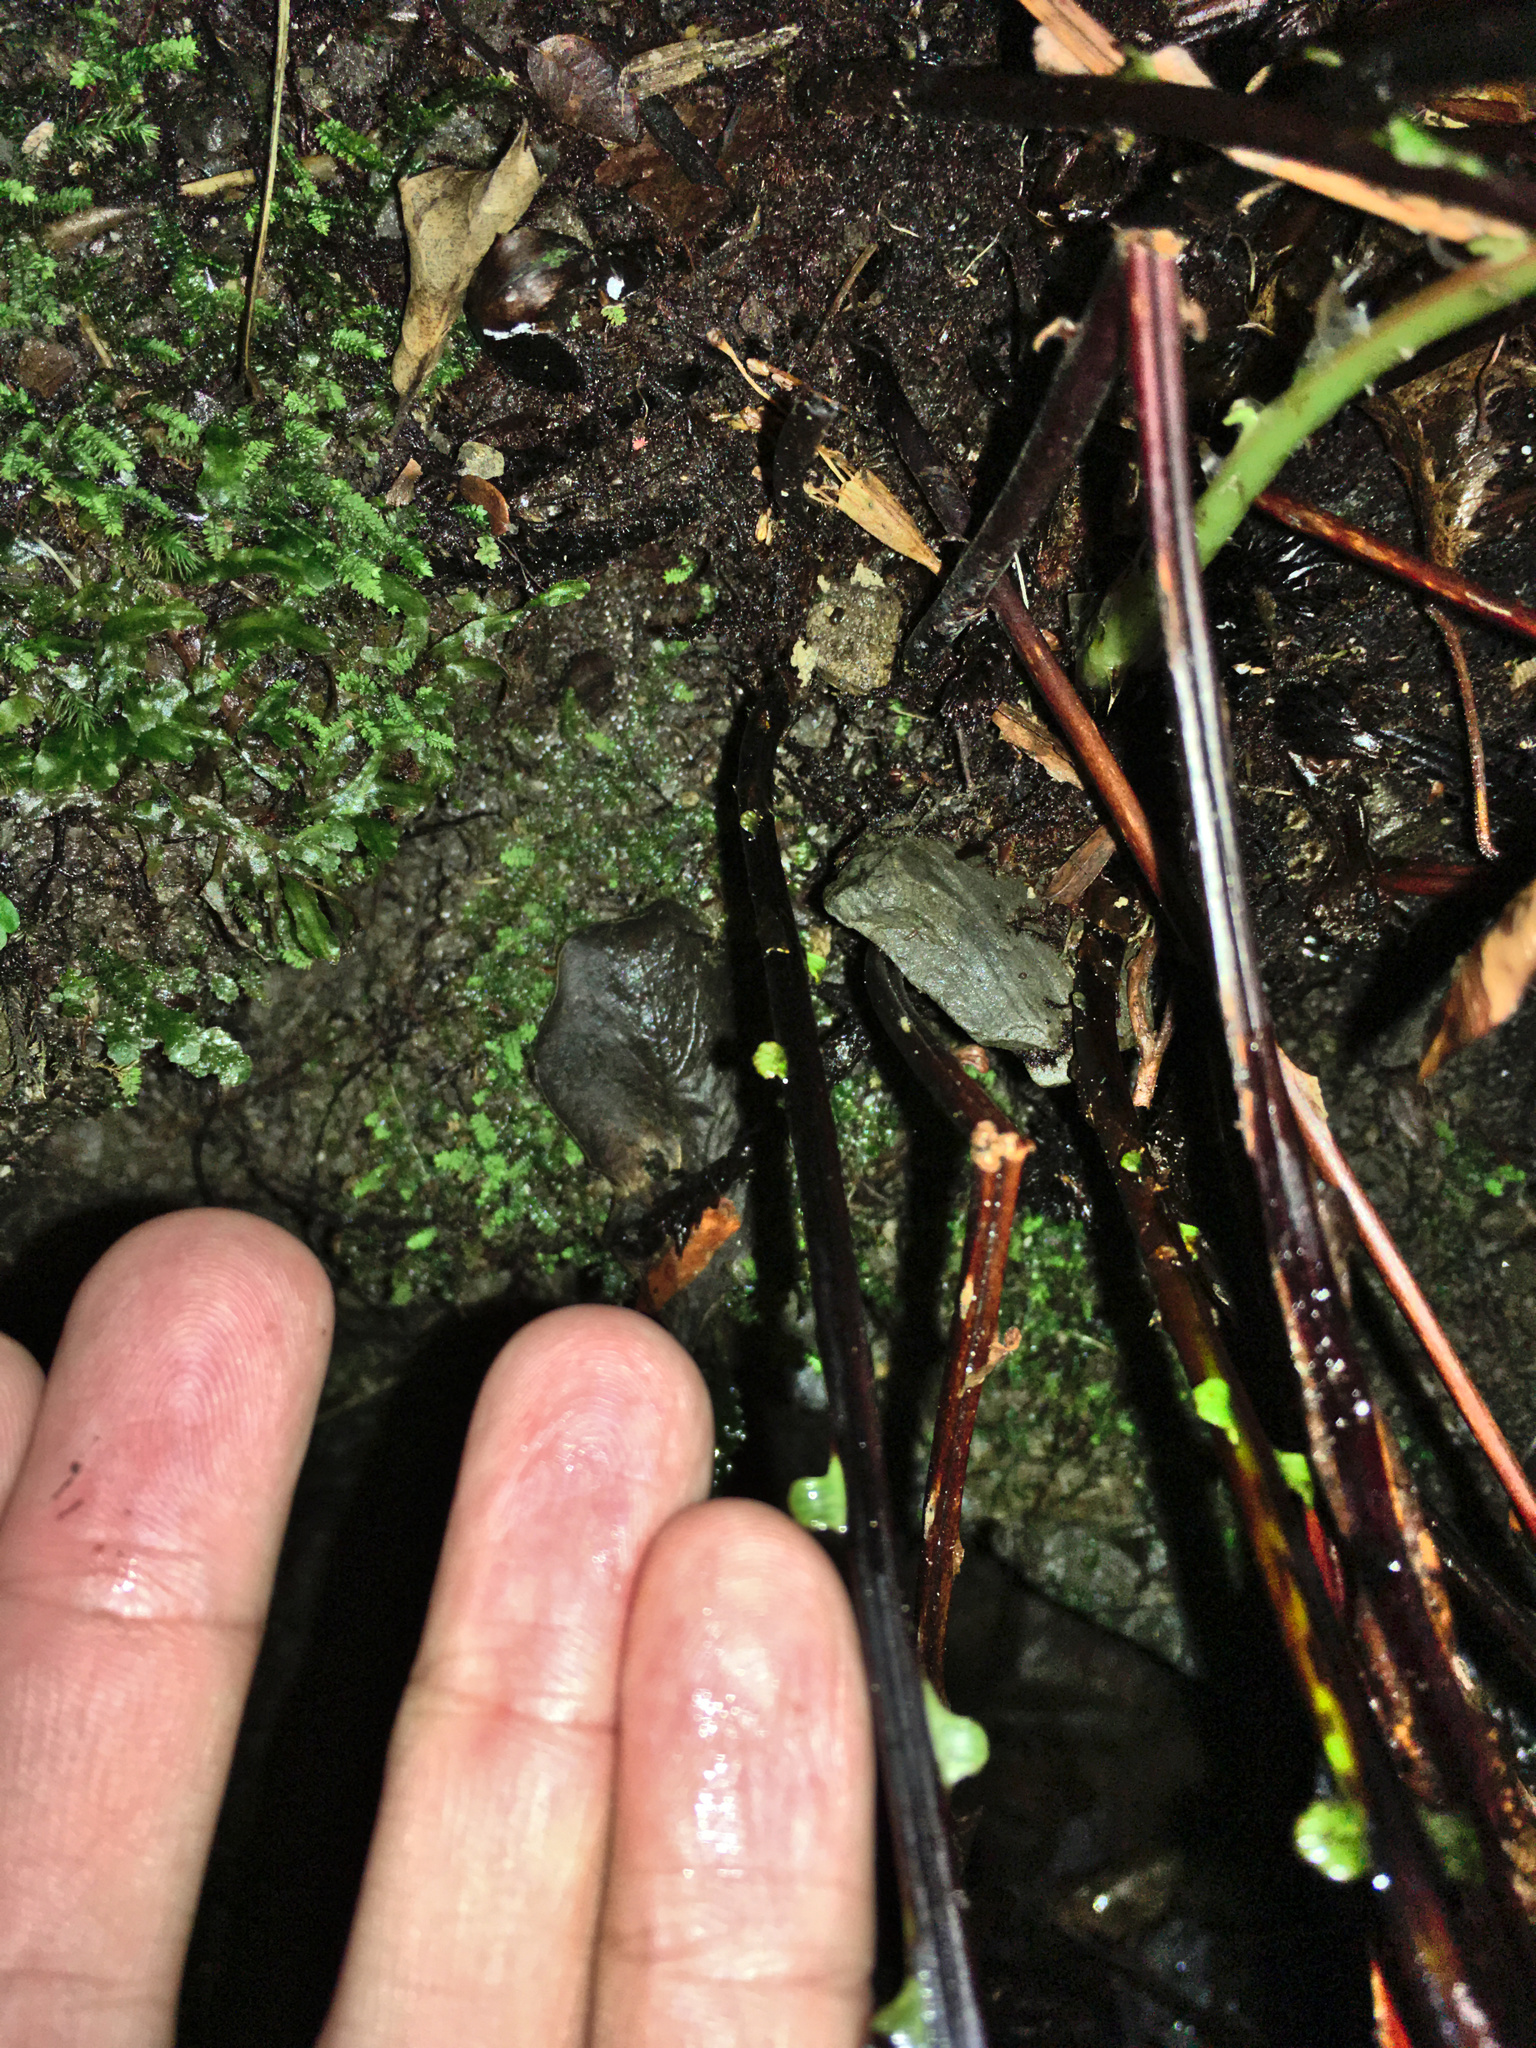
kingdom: Plantae
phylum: Tracheophyta
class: Polypodiopsida
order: Polypodiales
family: Blechnaceae
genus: Austroblechnum
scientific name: Austroblechnum colensoi
